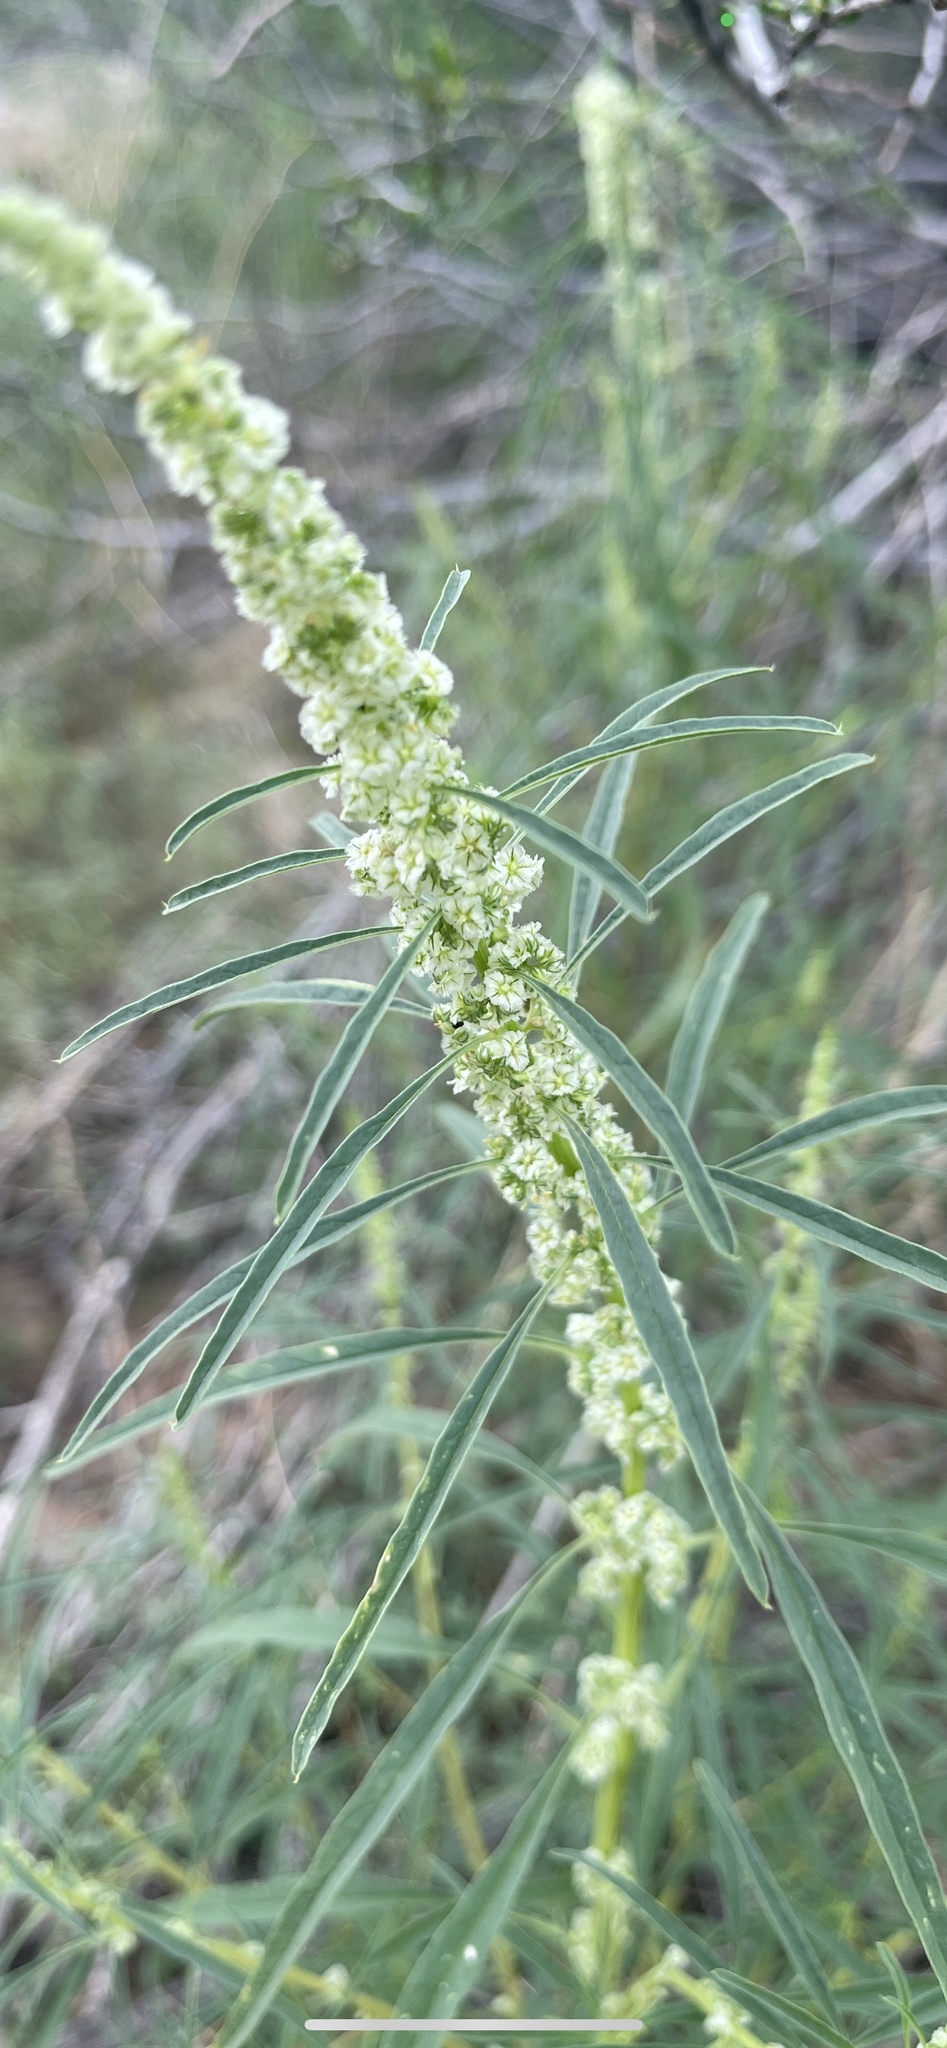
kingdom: Plantae
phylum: Tracheophyta
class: Magnoliopsida
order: Caryophyllales
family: Amaranthaceae
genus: Amaranthus
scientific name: Amaranthus fimbriatus
